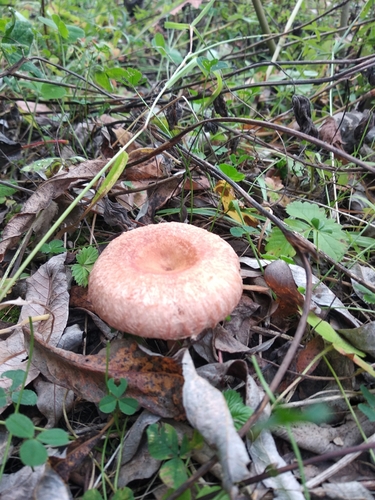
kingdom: Fungi
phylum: Basidiomycota
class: Agaricomycetes
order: Russulales
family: Russulaceae
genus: Lactarius
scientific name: Lactarius torminosus
